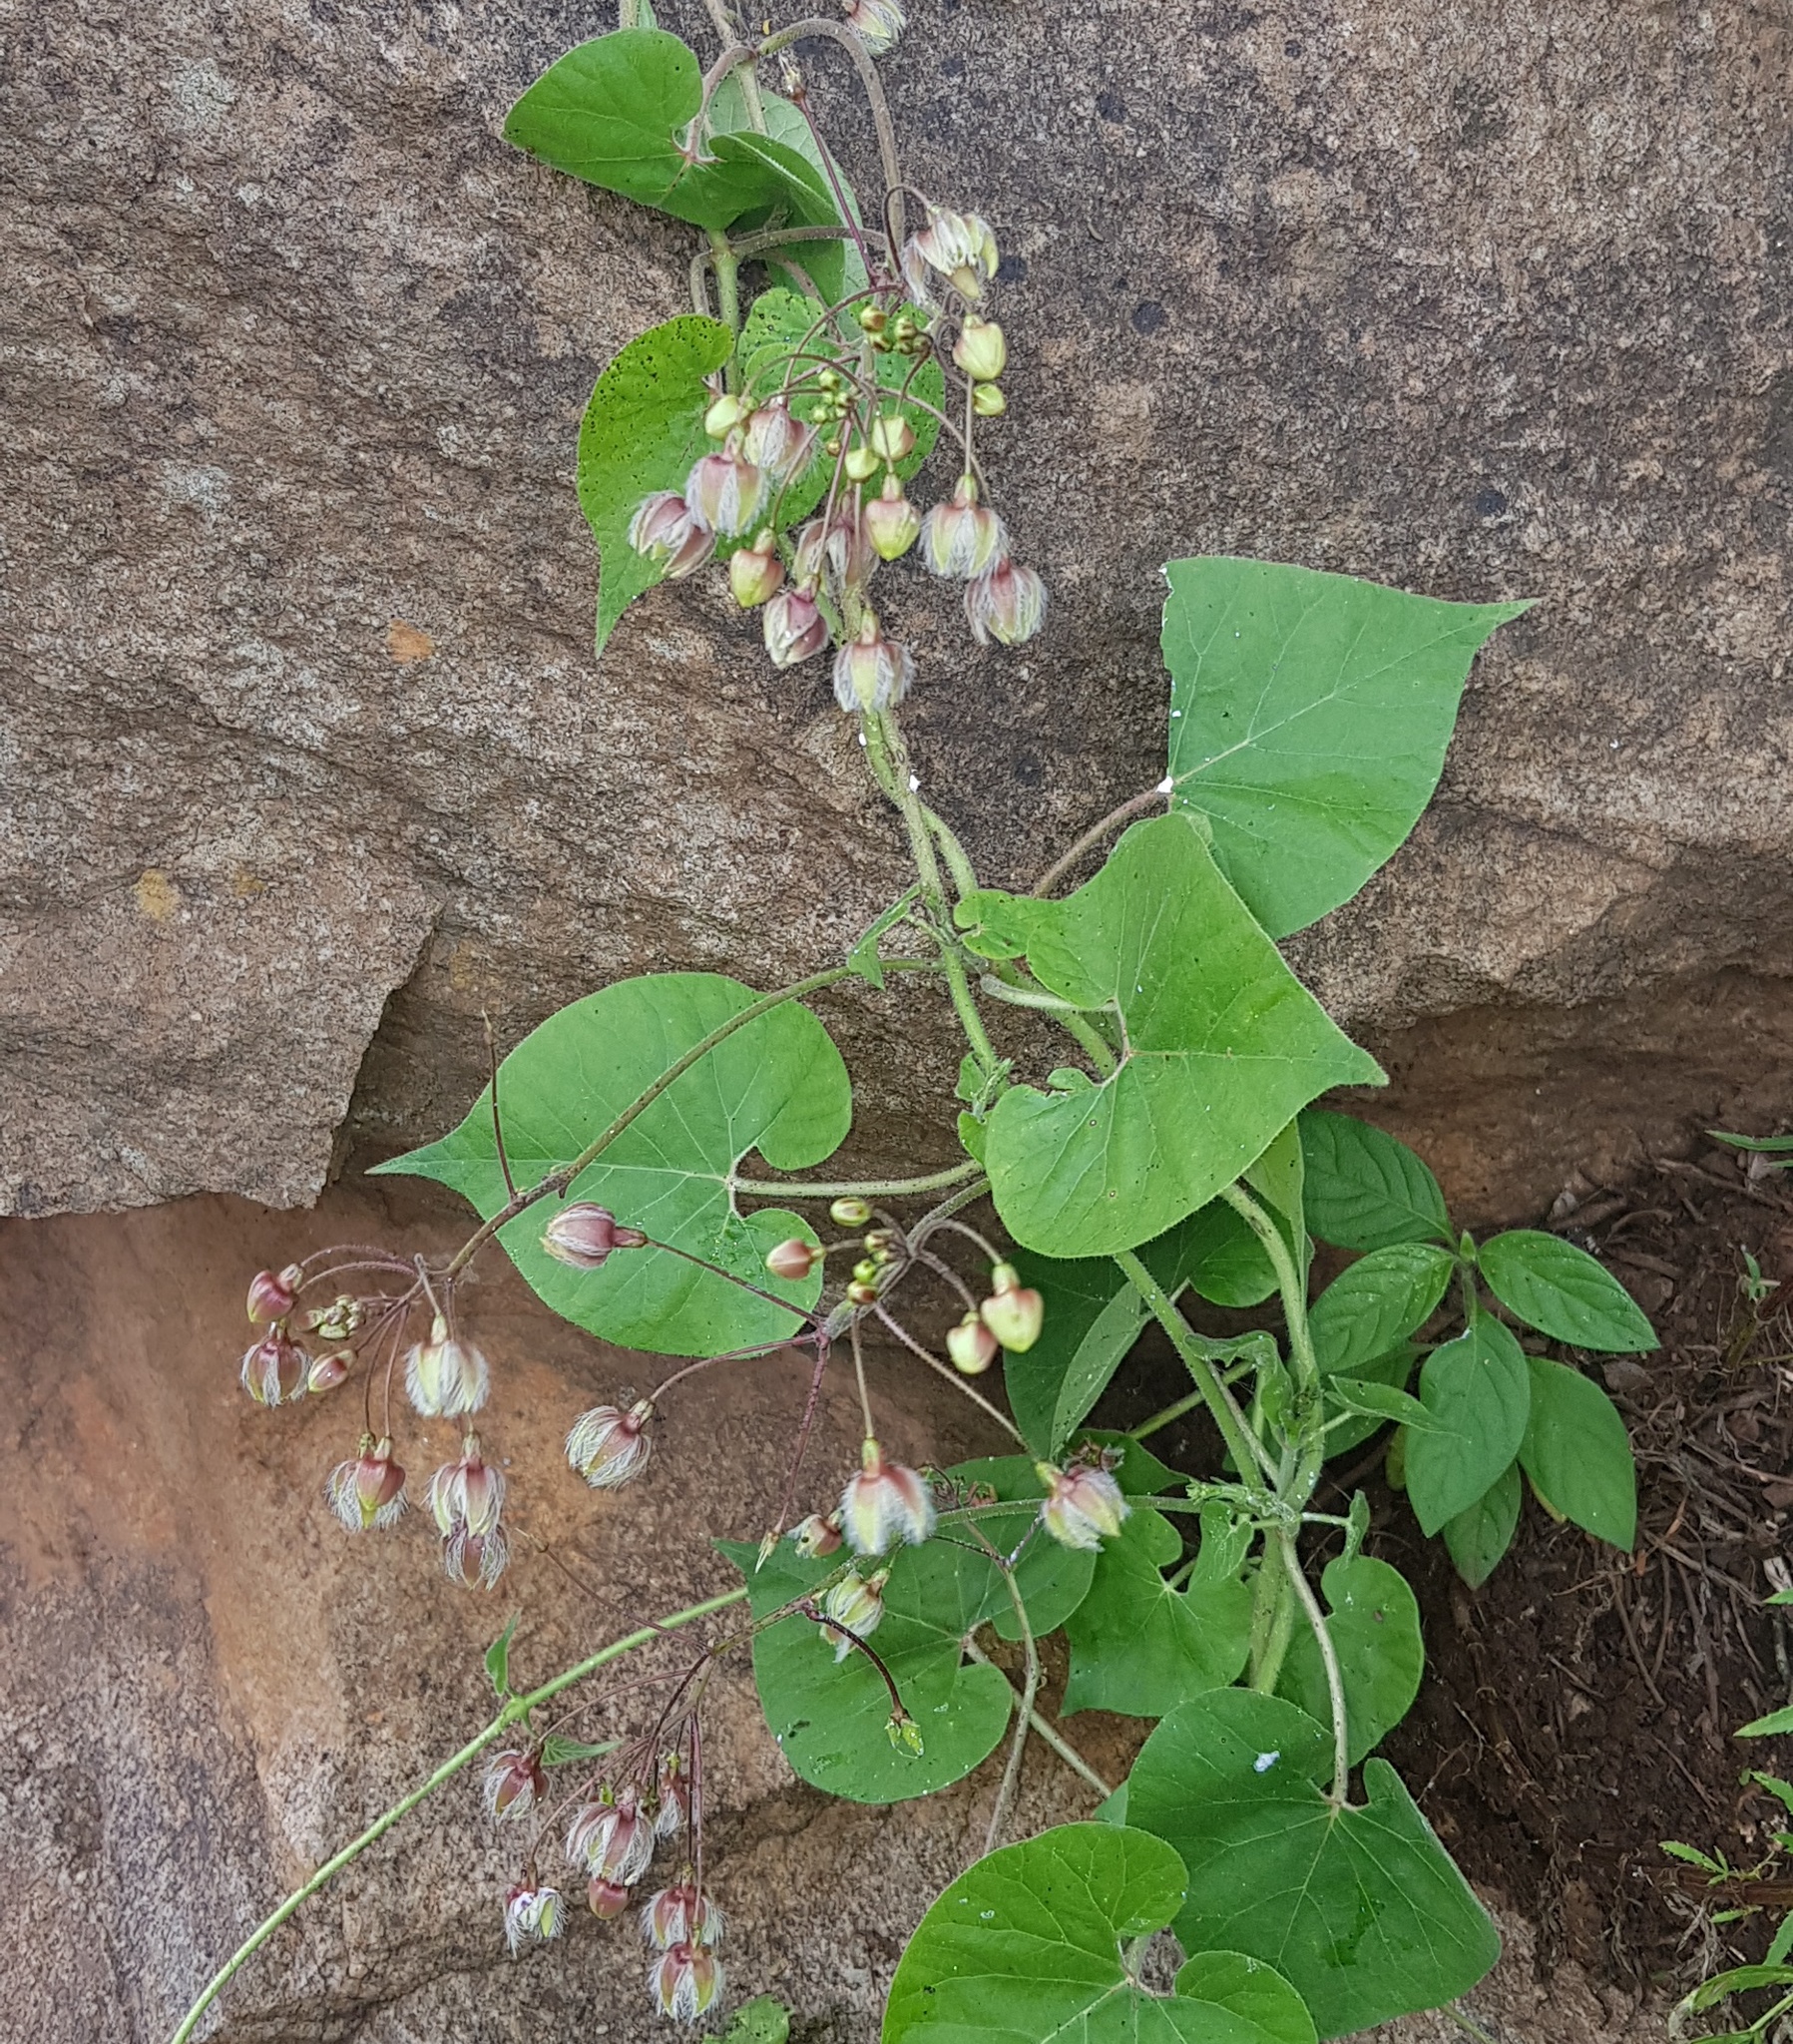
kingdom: Plantae
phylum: Tracheophyta
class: Magnoliopsida
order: Gentianales
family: Apocynaceae
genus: Pergularia
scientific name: Pergularia daemia
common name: Trellis-vine
